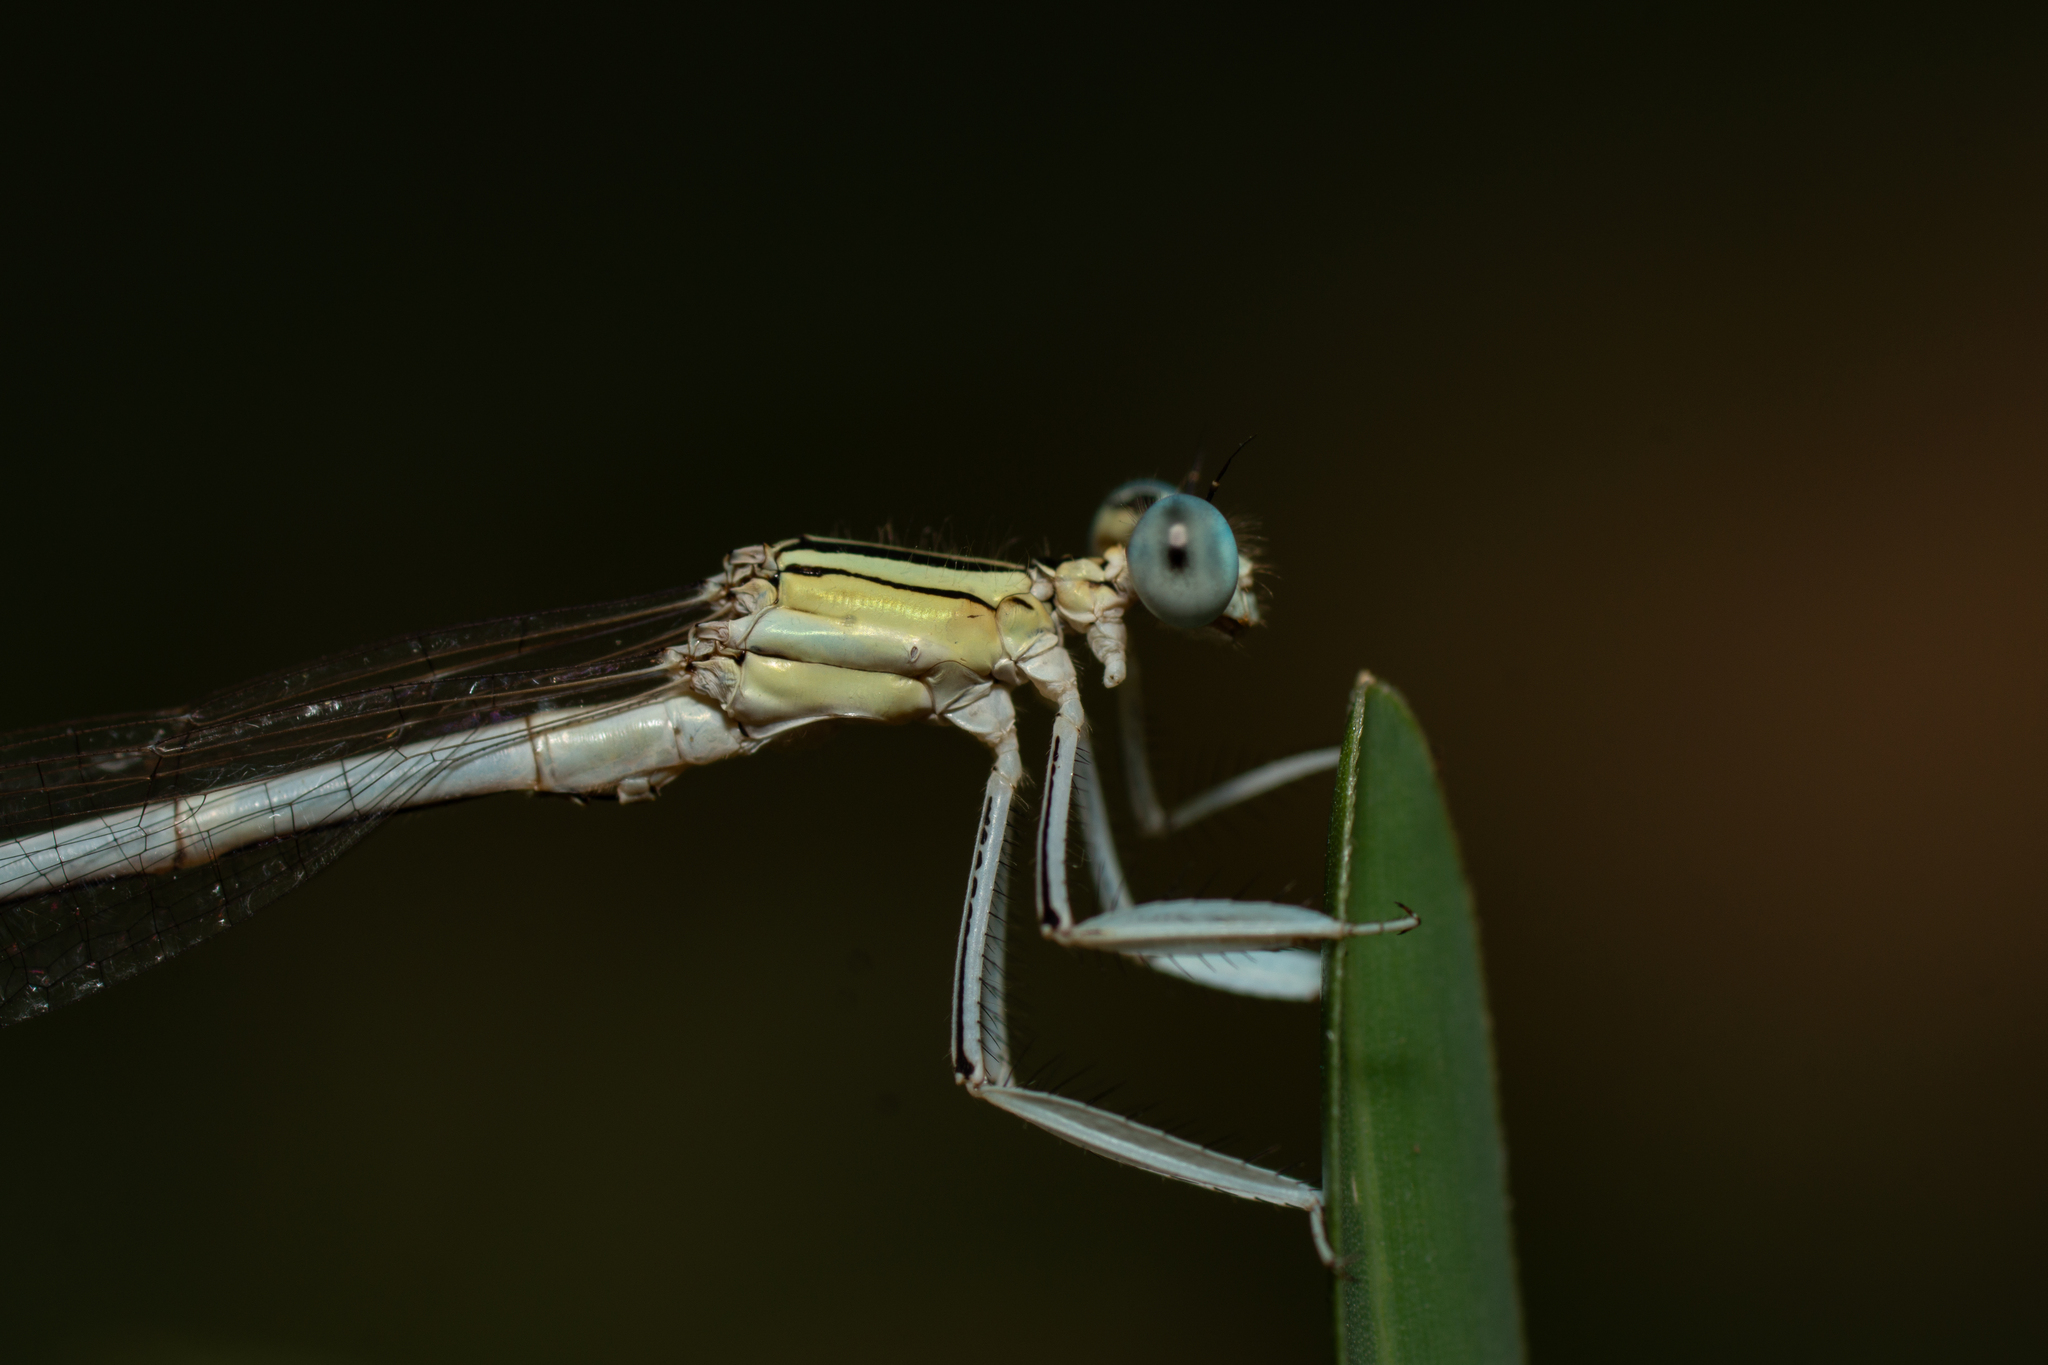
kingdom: Animalia
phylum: Arthropoda
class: Insecta
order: Odonata
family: Platycnemididae
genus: Platycnemis
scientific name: Platycnemis latipes
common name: White featherleg
